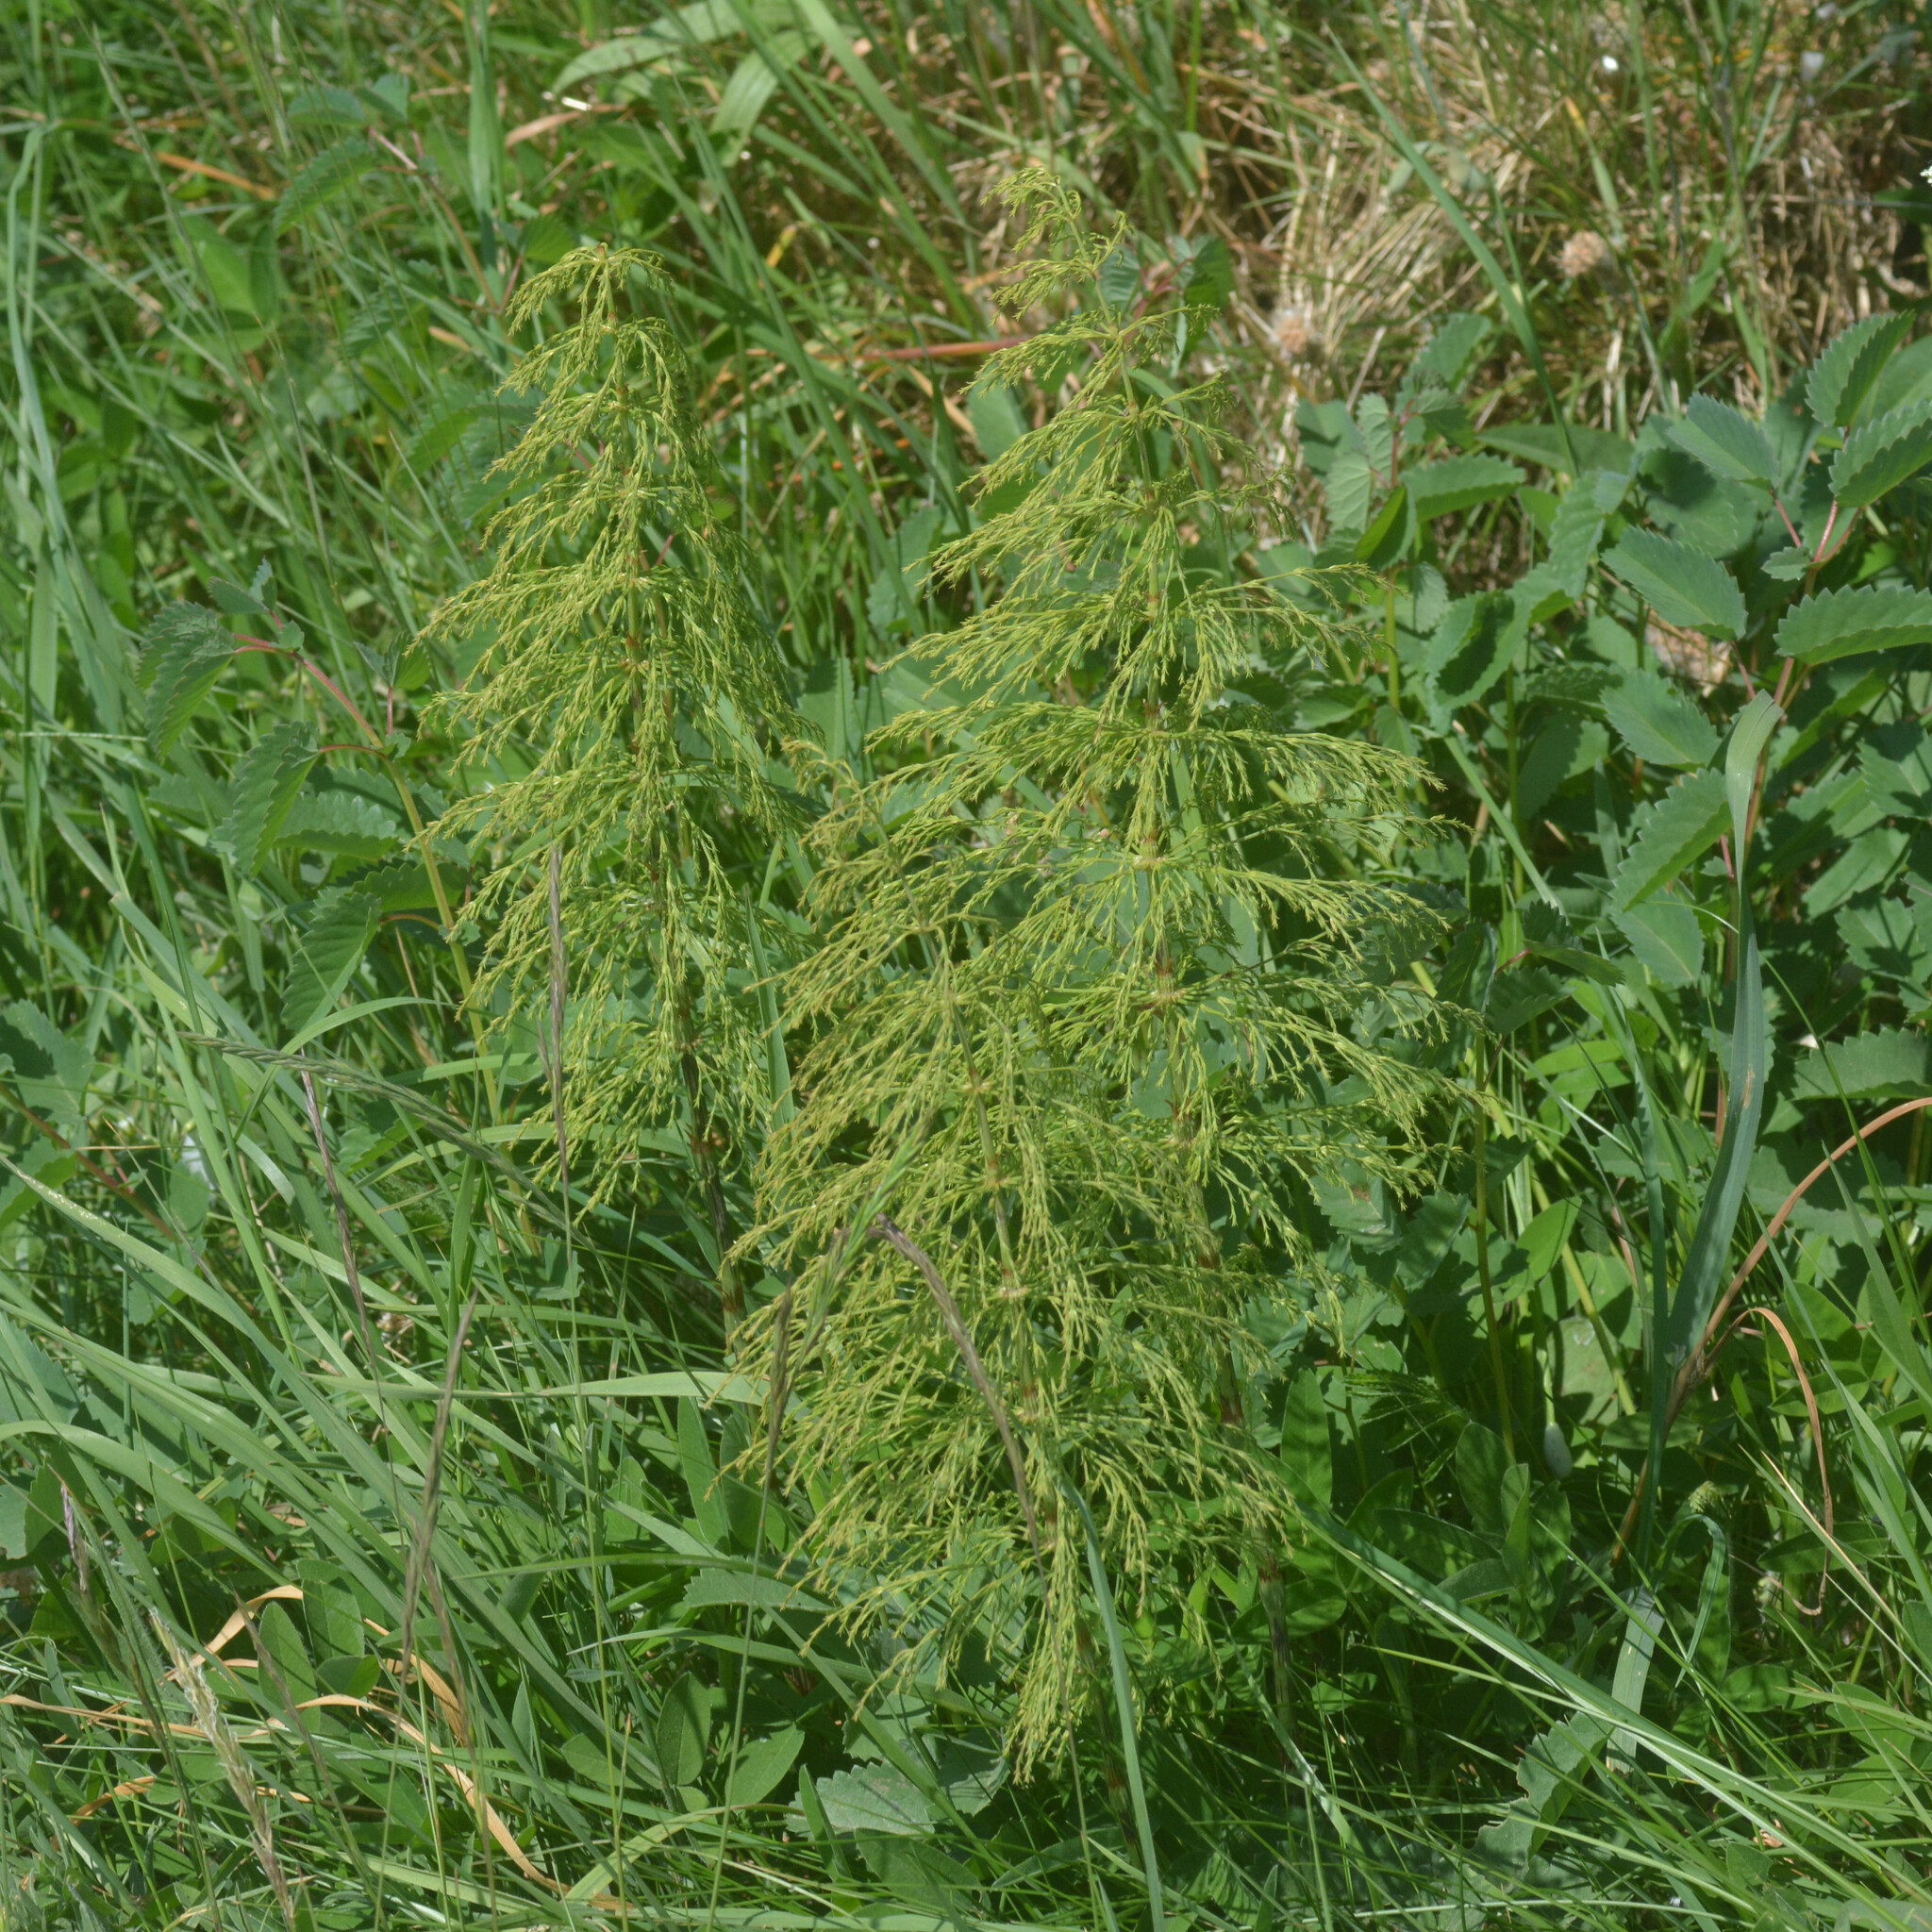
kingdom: Plantae
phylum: Tracheophyta
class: Polypodiopsida
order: Equisetales
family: Equisetaceae
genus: Equisetum
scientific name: Equisetum sylvaticum
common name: Wood horsetail
